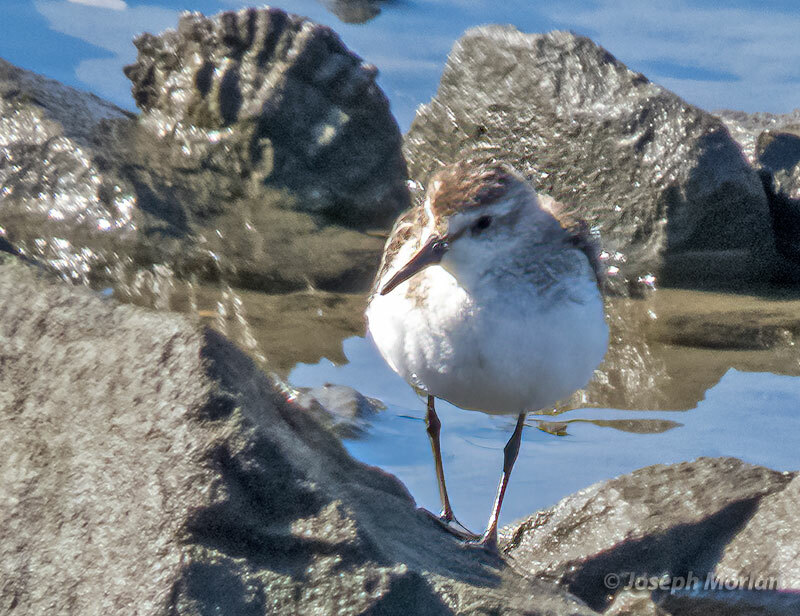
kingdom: Animalia
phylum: Chordata
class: Aves
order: Charadriiformes
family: Scolopacidae
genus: Calidris
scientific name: Calidris mauri
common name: Western sandpiper
